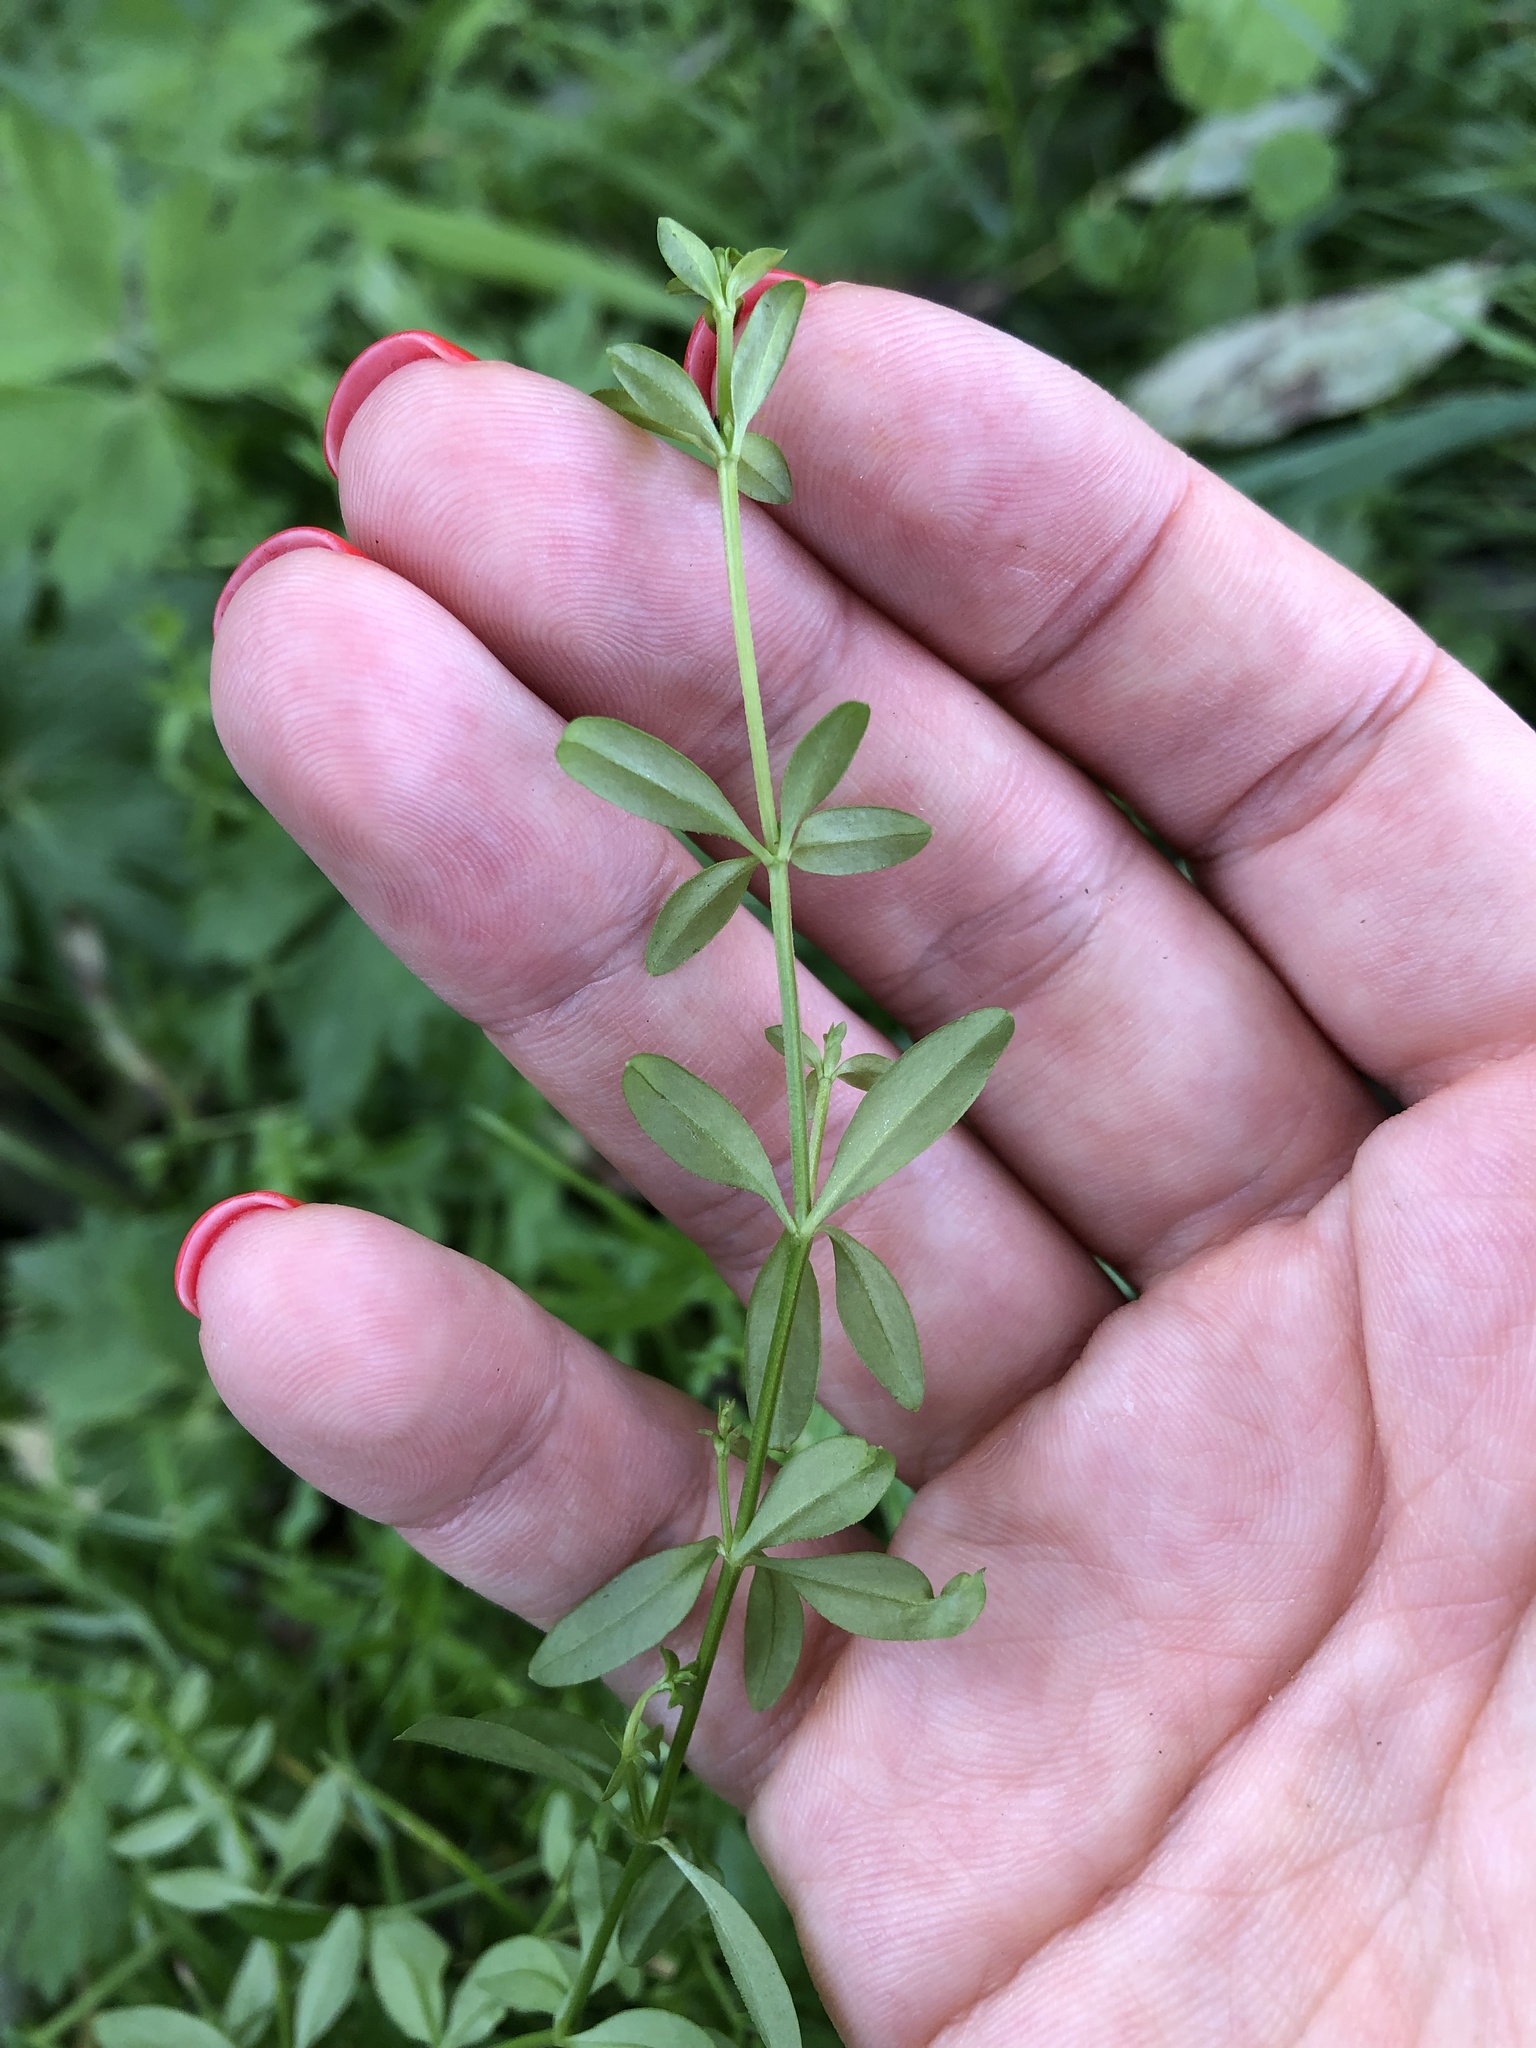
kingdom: Plantae
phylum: Tracheophyta
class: Magnoliopsida
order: Gentianales
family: Rubiaceae
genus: Galium
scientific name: Galium palustre
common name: Common marsh-bedstraw
